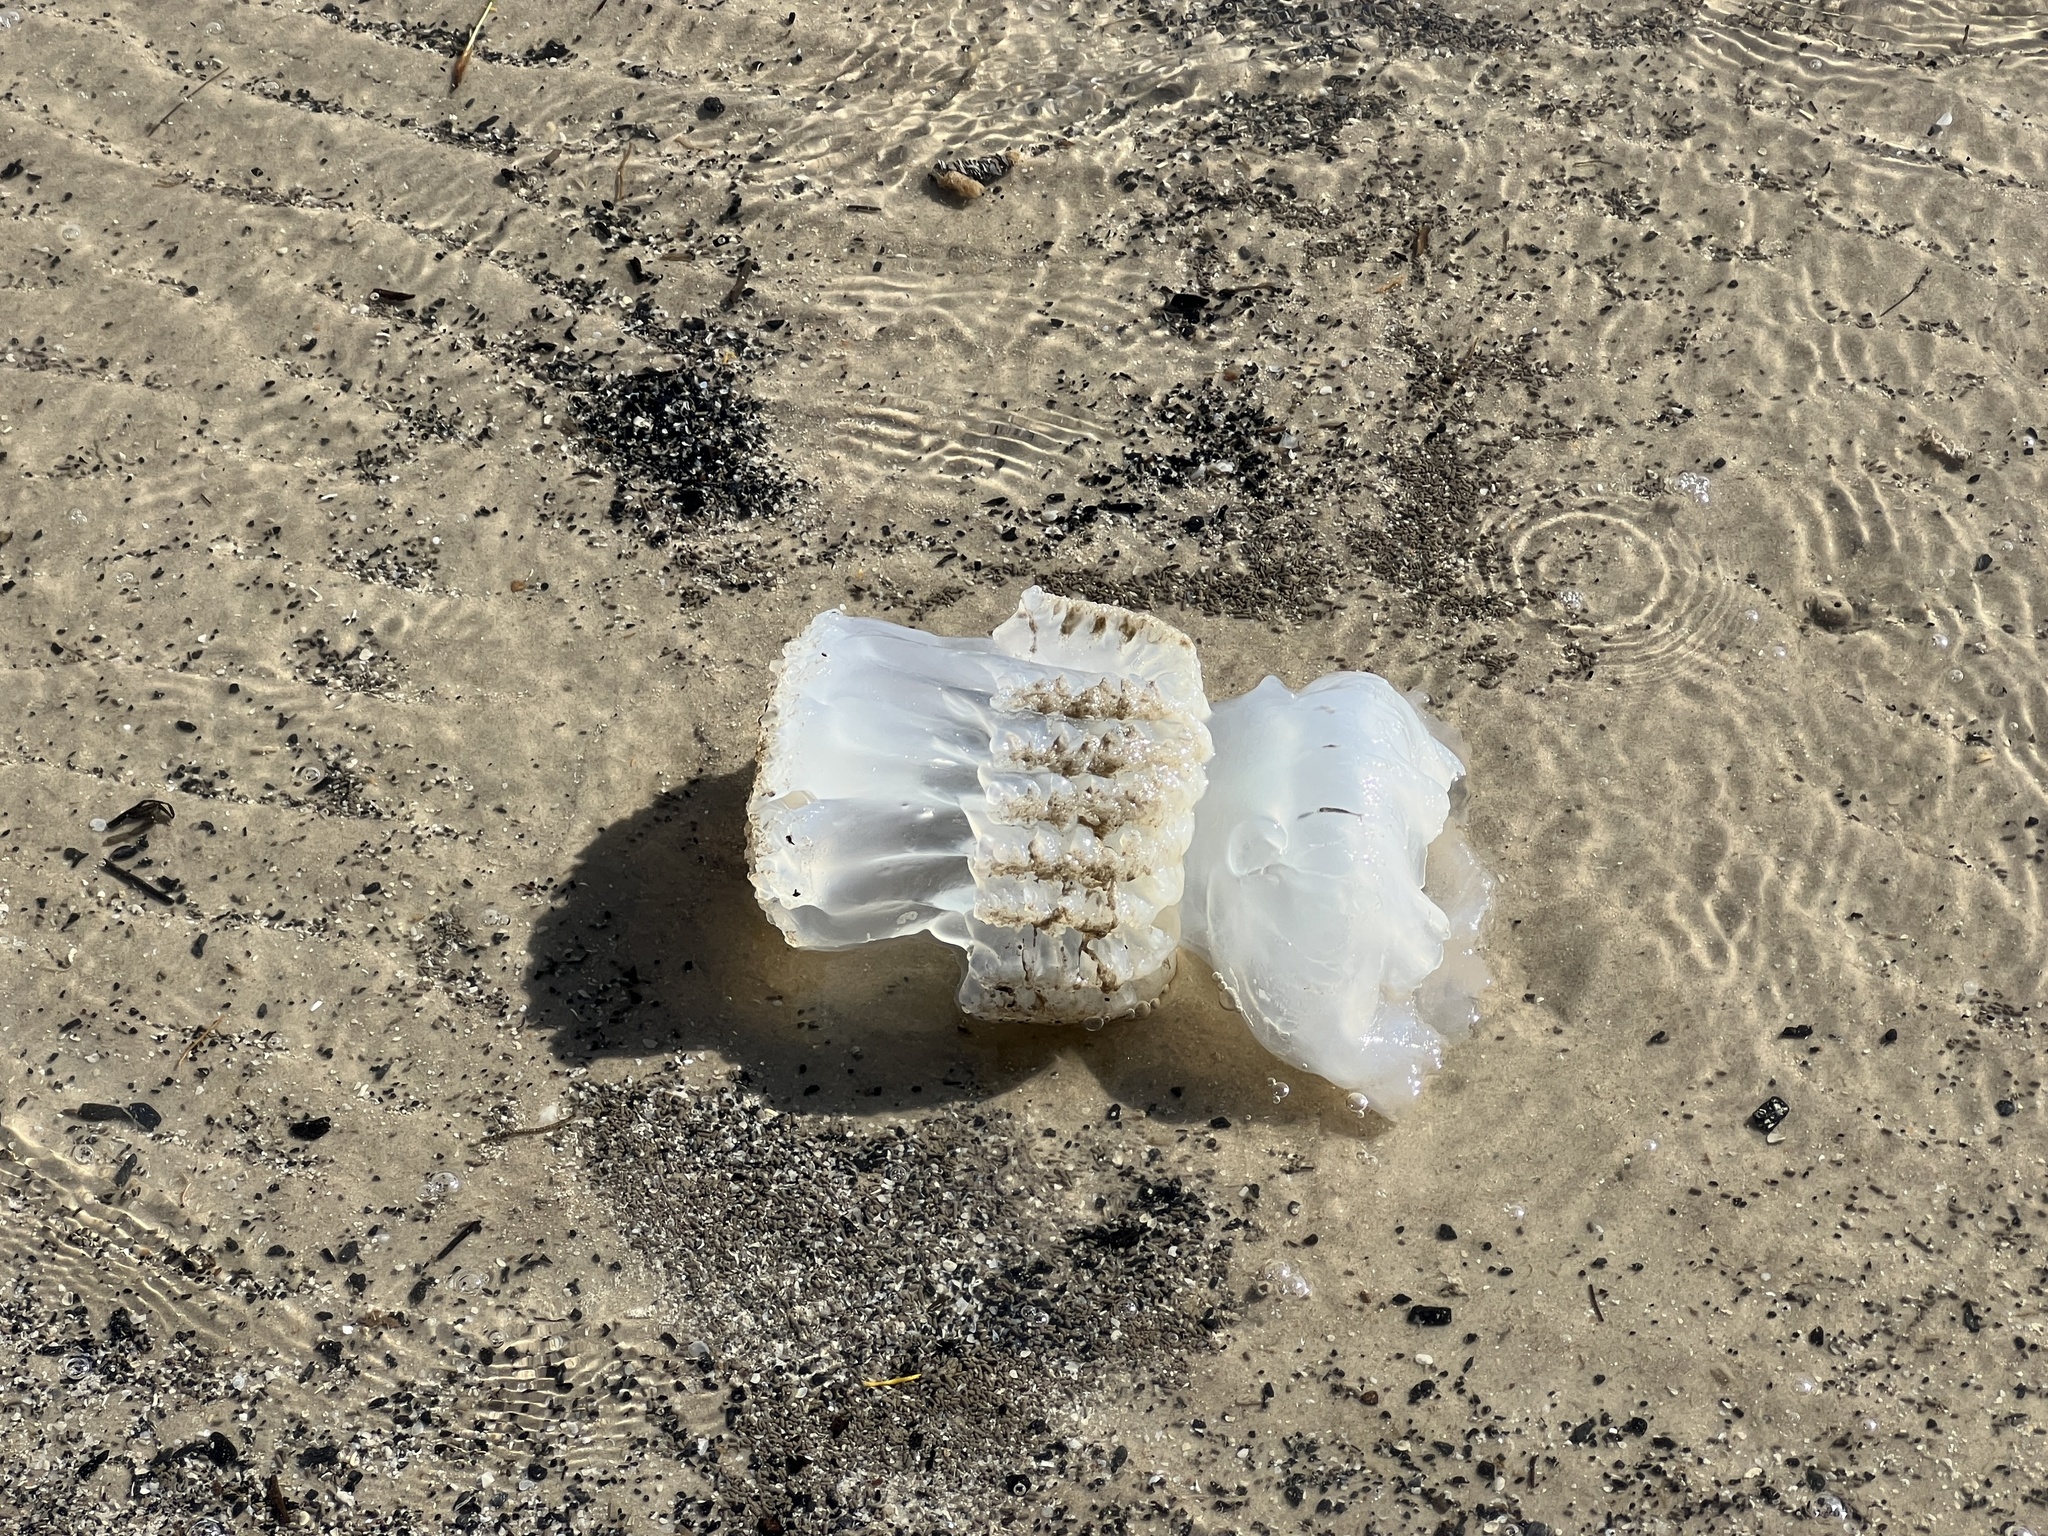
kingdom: Animalia
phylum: Cnidaria
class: Scyphozoa
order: Rhizostomeae
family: Stomolophidae
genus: Stomolophus
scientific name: Stomolophus meleagris
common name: Cabbagehead
